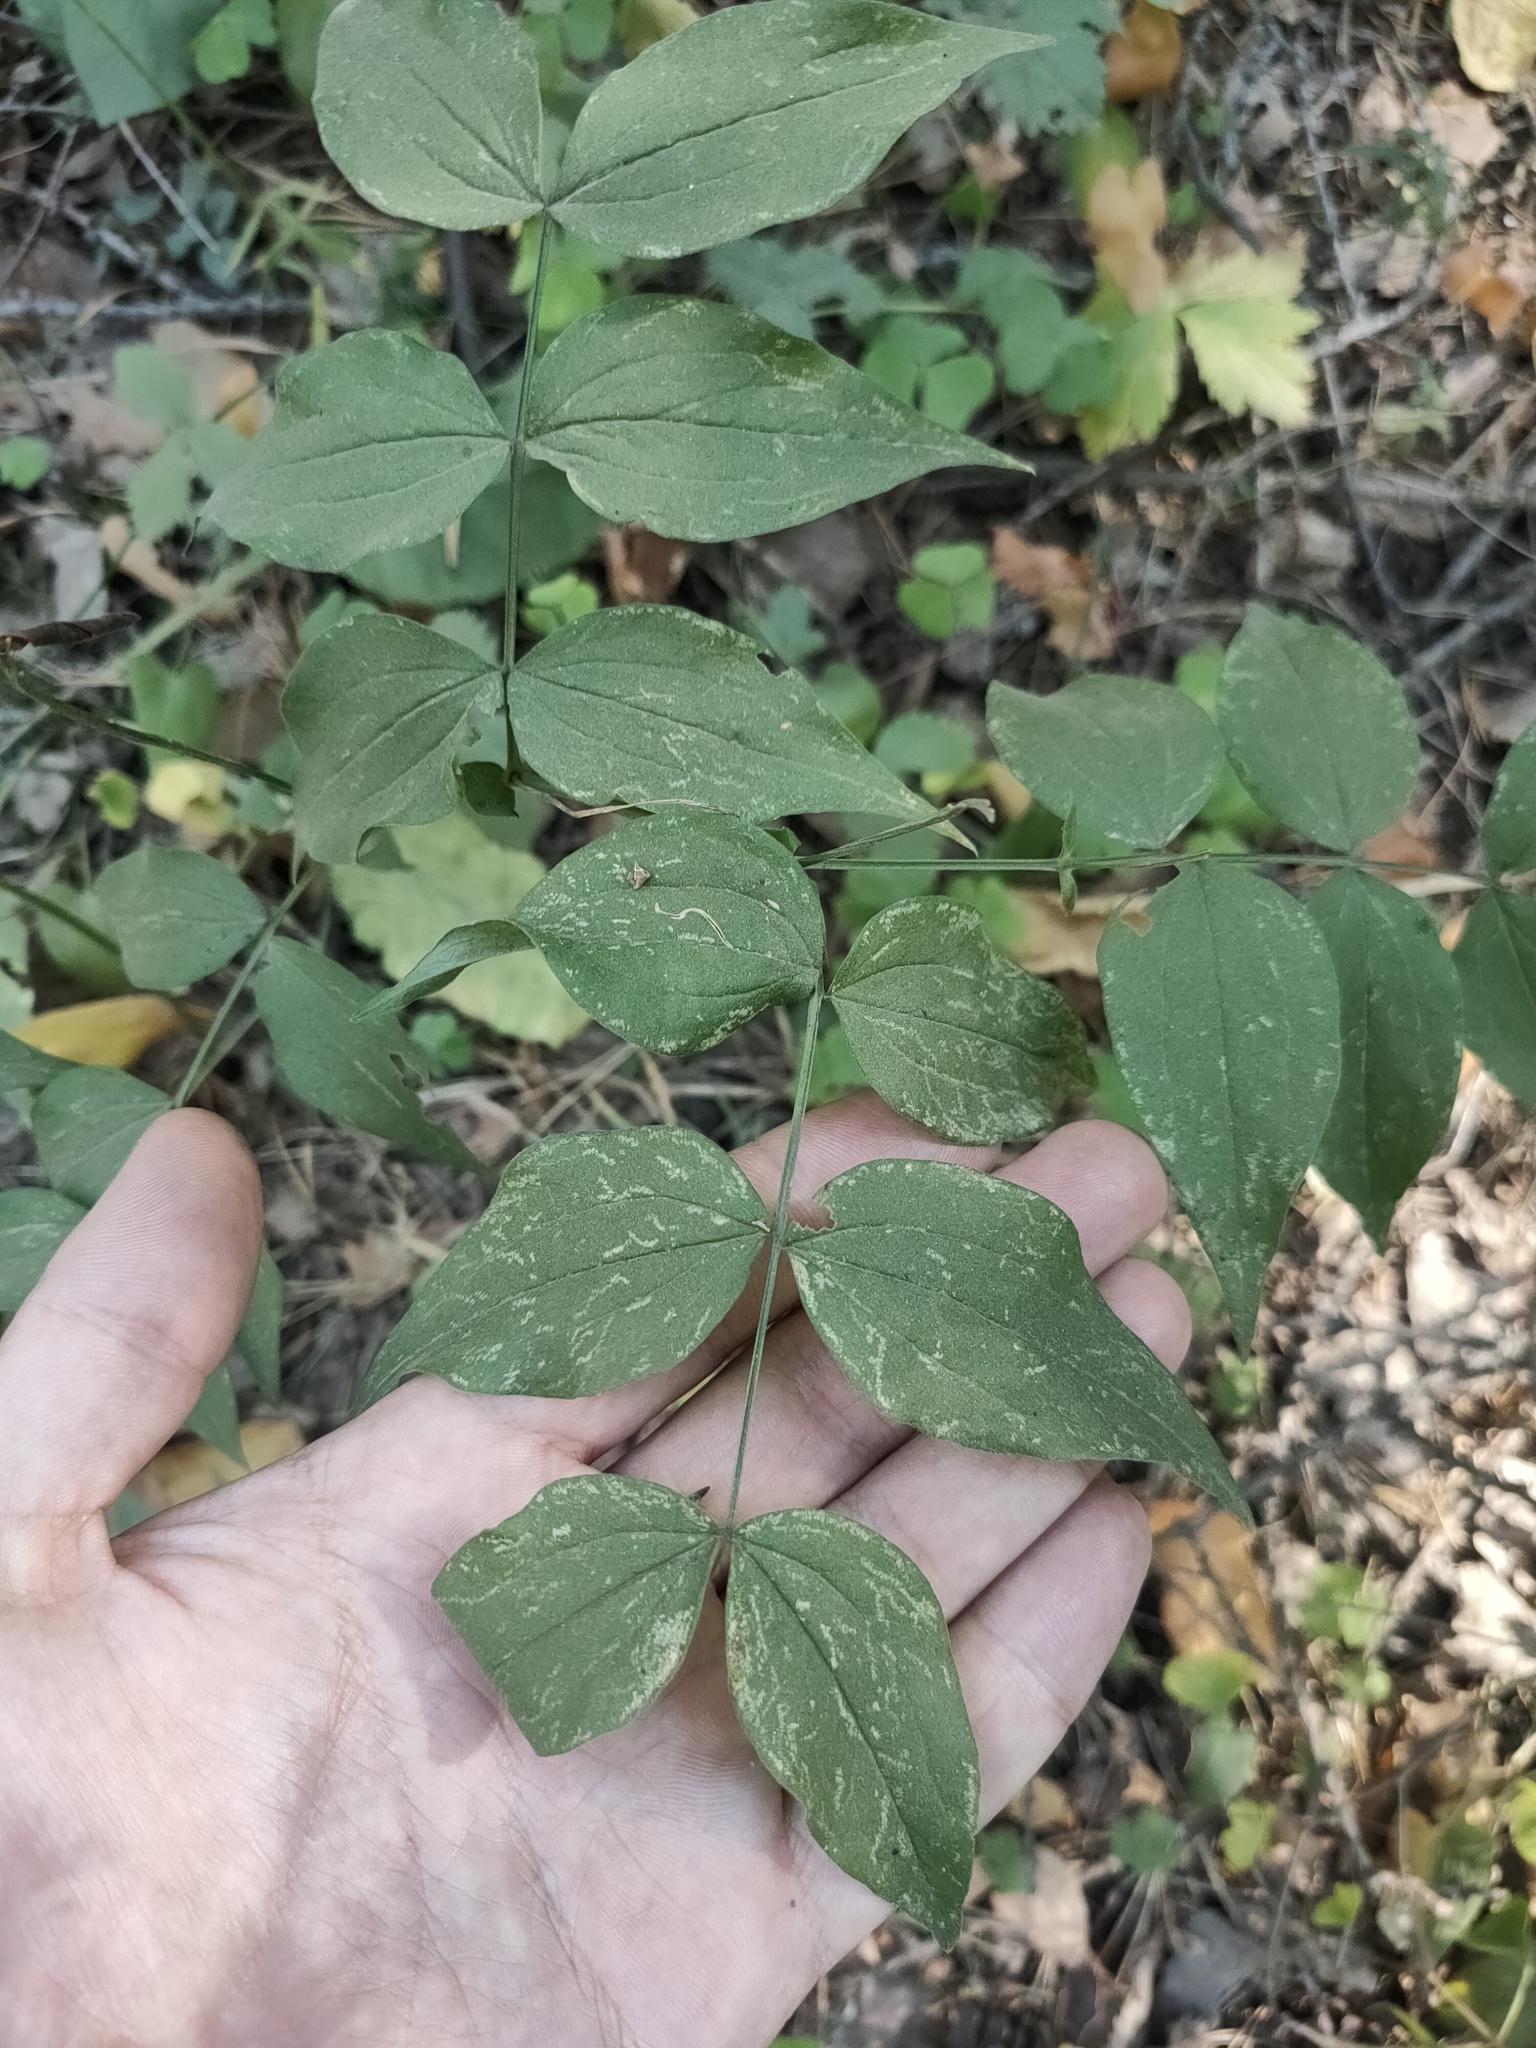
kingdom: Plantae
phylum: Tracheophyta
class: Magnoliopsida
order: Fabales
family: Fabaceae
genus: Lathyrus
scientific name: Lathyrus vernus
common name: Spring pea
